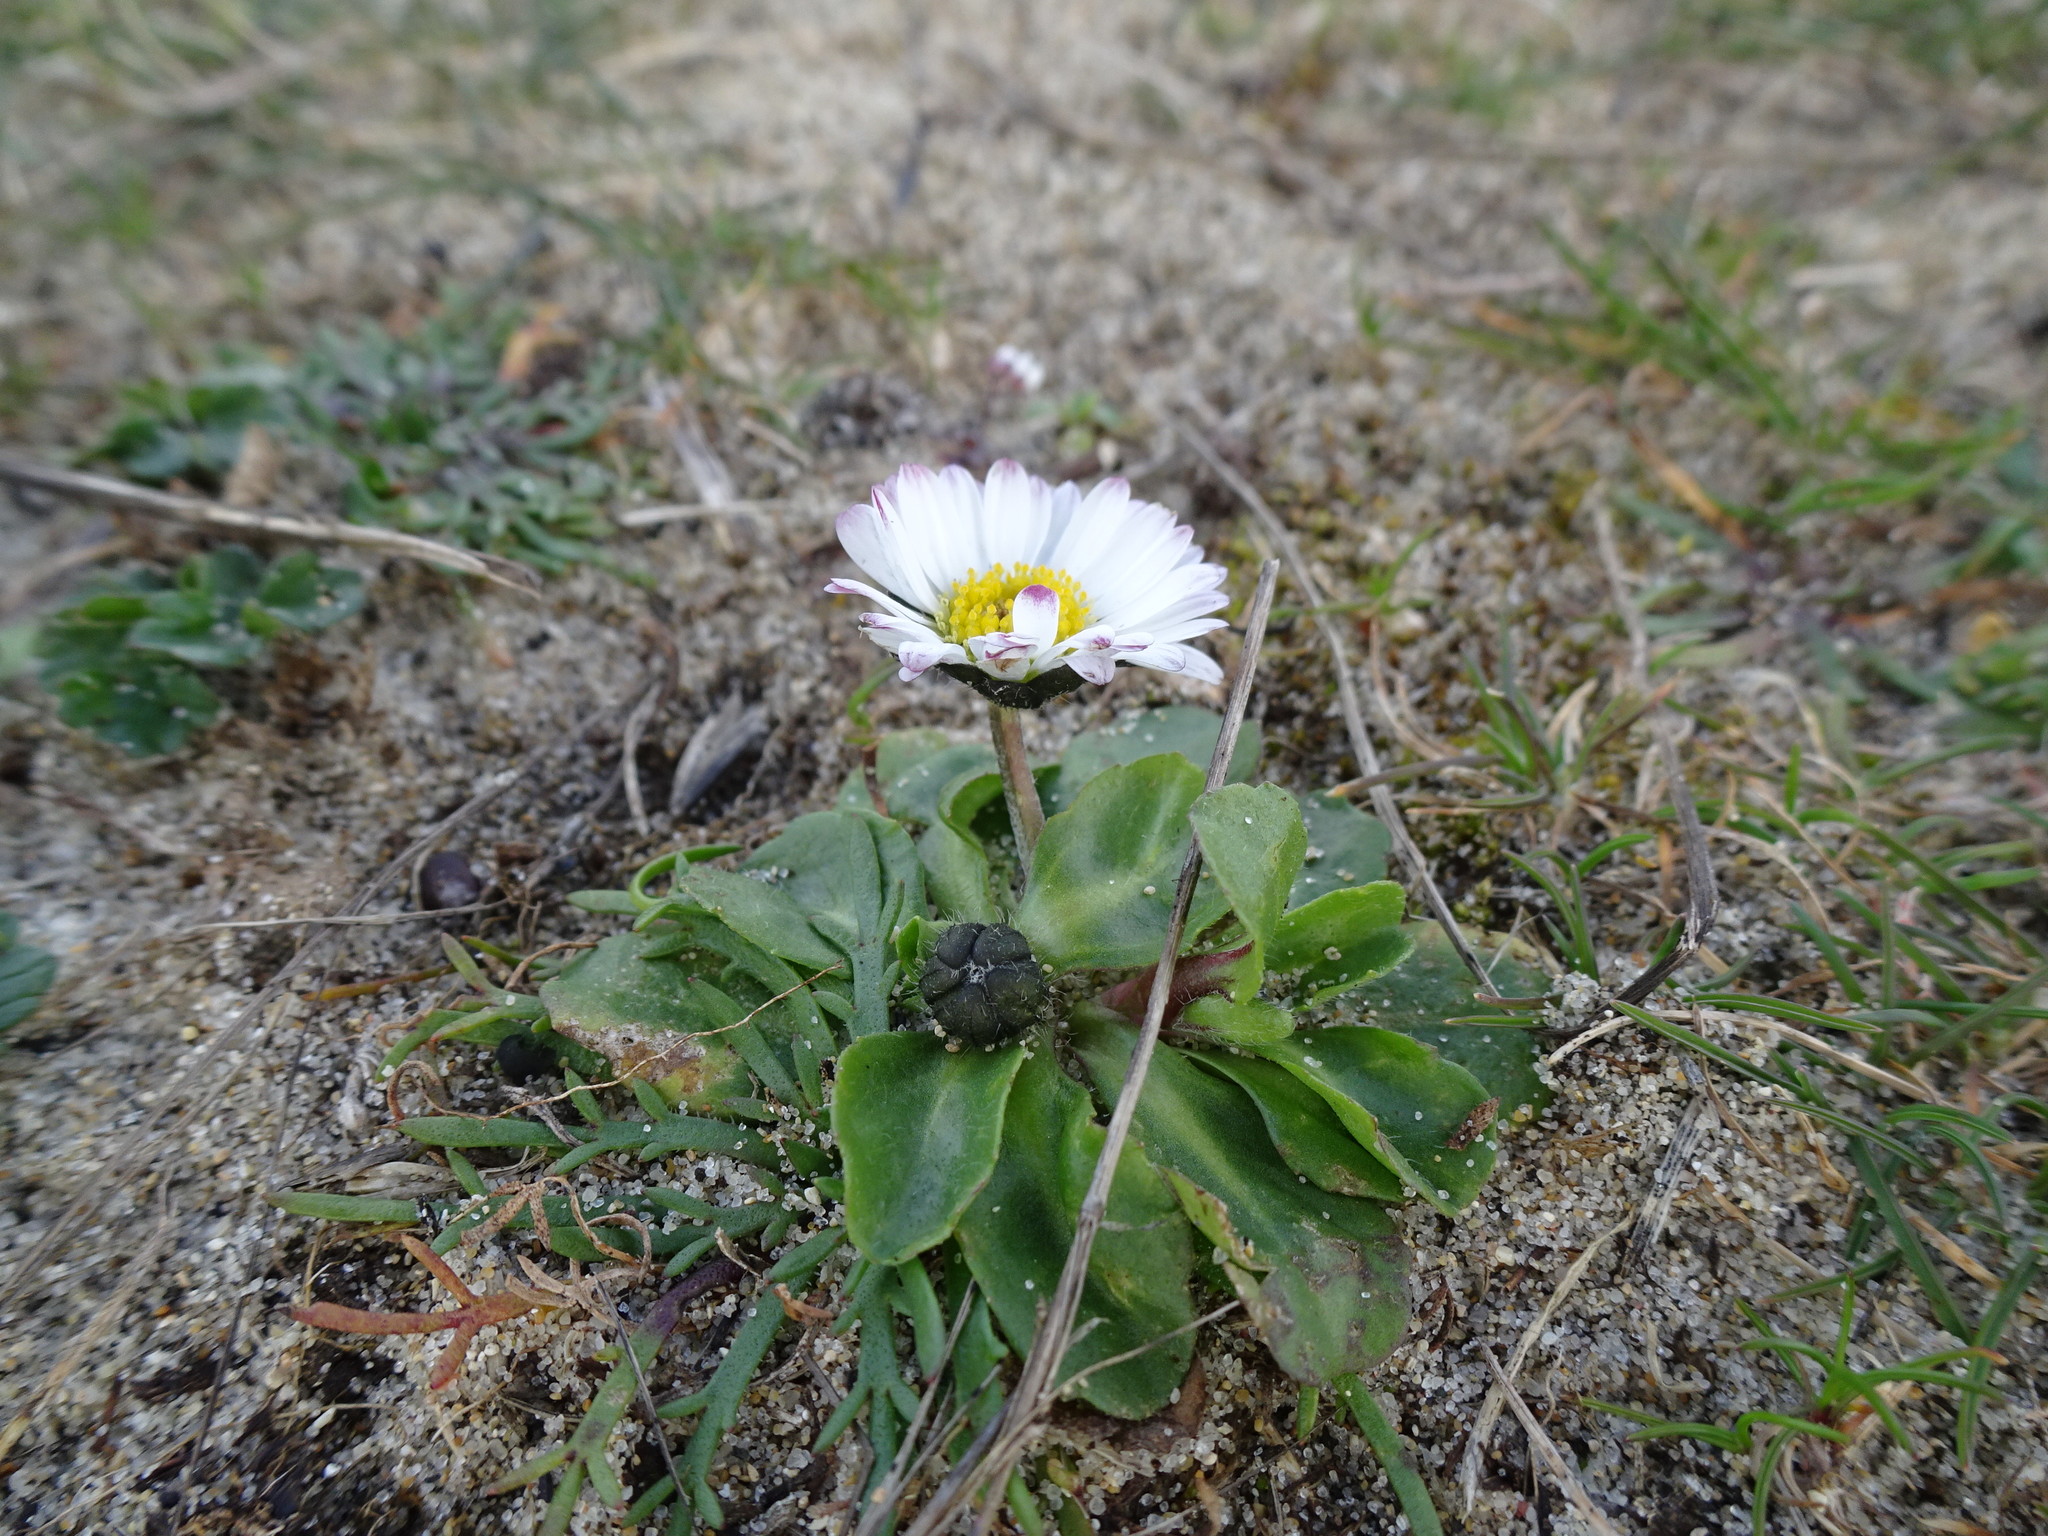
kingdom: Plantae
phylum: Tracheophyta
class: Magnoliopsida
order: Asterales
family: Asteraceae
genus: Bellis
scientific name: Bellis perennis
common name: Lawndaisy
